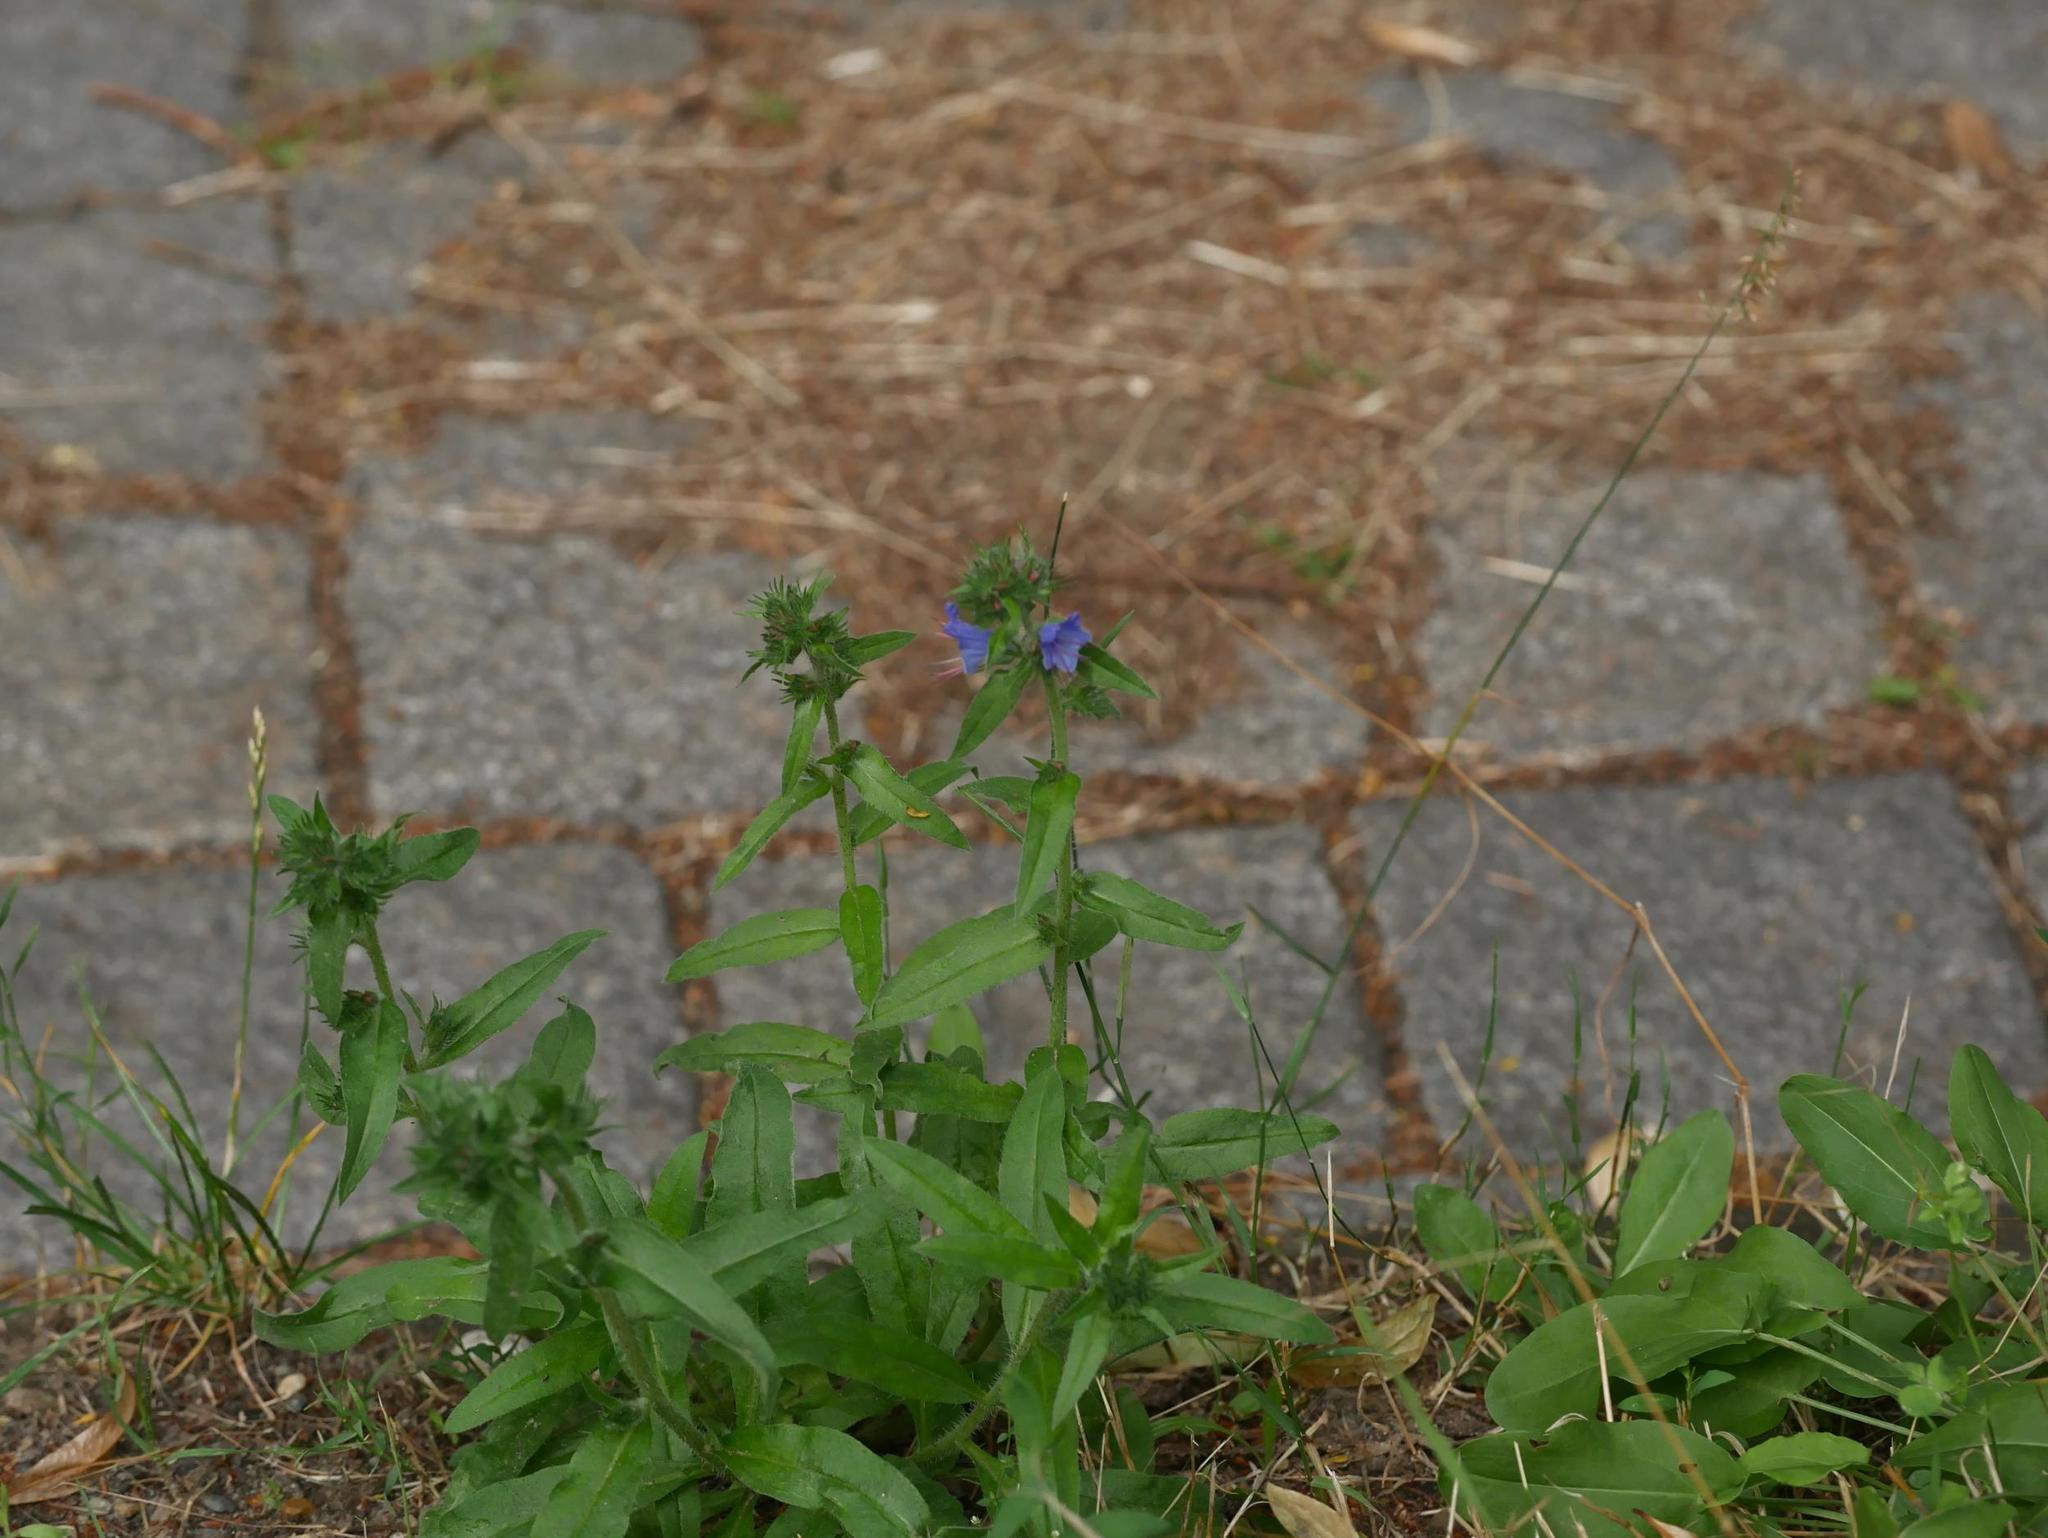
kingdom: Plantae
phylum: Tracheophyta
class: Magnoliopsida
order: Boraginales
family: Boraginaceae
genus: Echium
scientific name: Echium vulgare
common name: Common viper's bugloss
